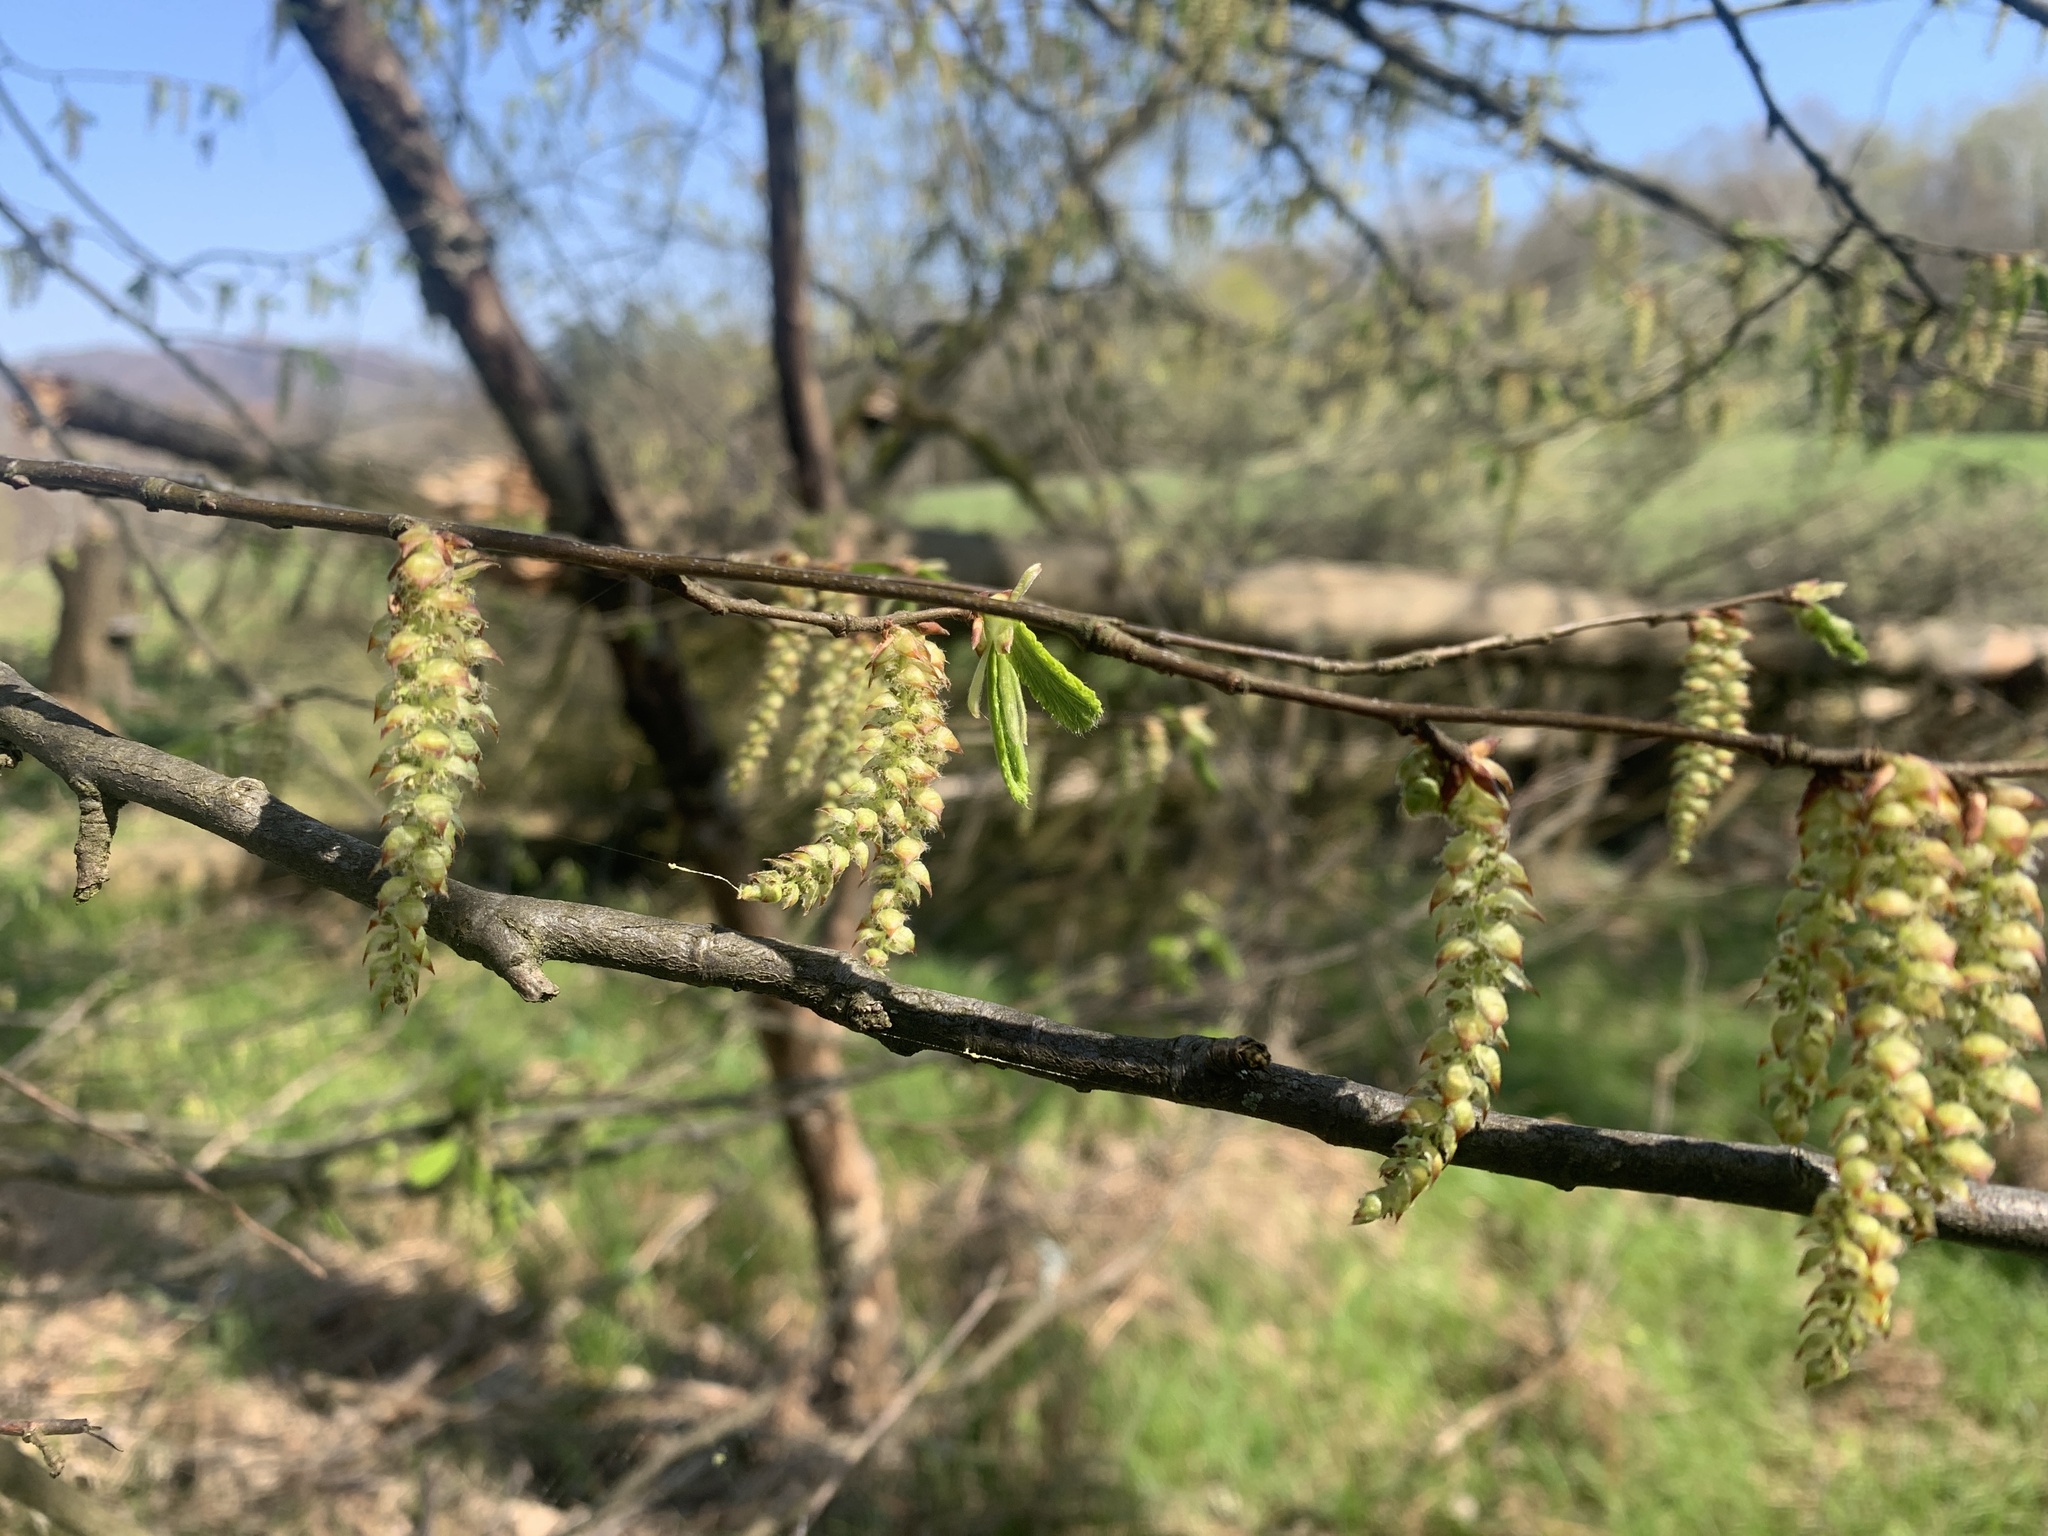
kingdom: Plantae
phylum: Tracheophyta
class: Magnoliopsida
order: Fagales
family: Betulaceae
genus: Carpinus
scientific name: Carpinus betulus
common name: Hornbeam
